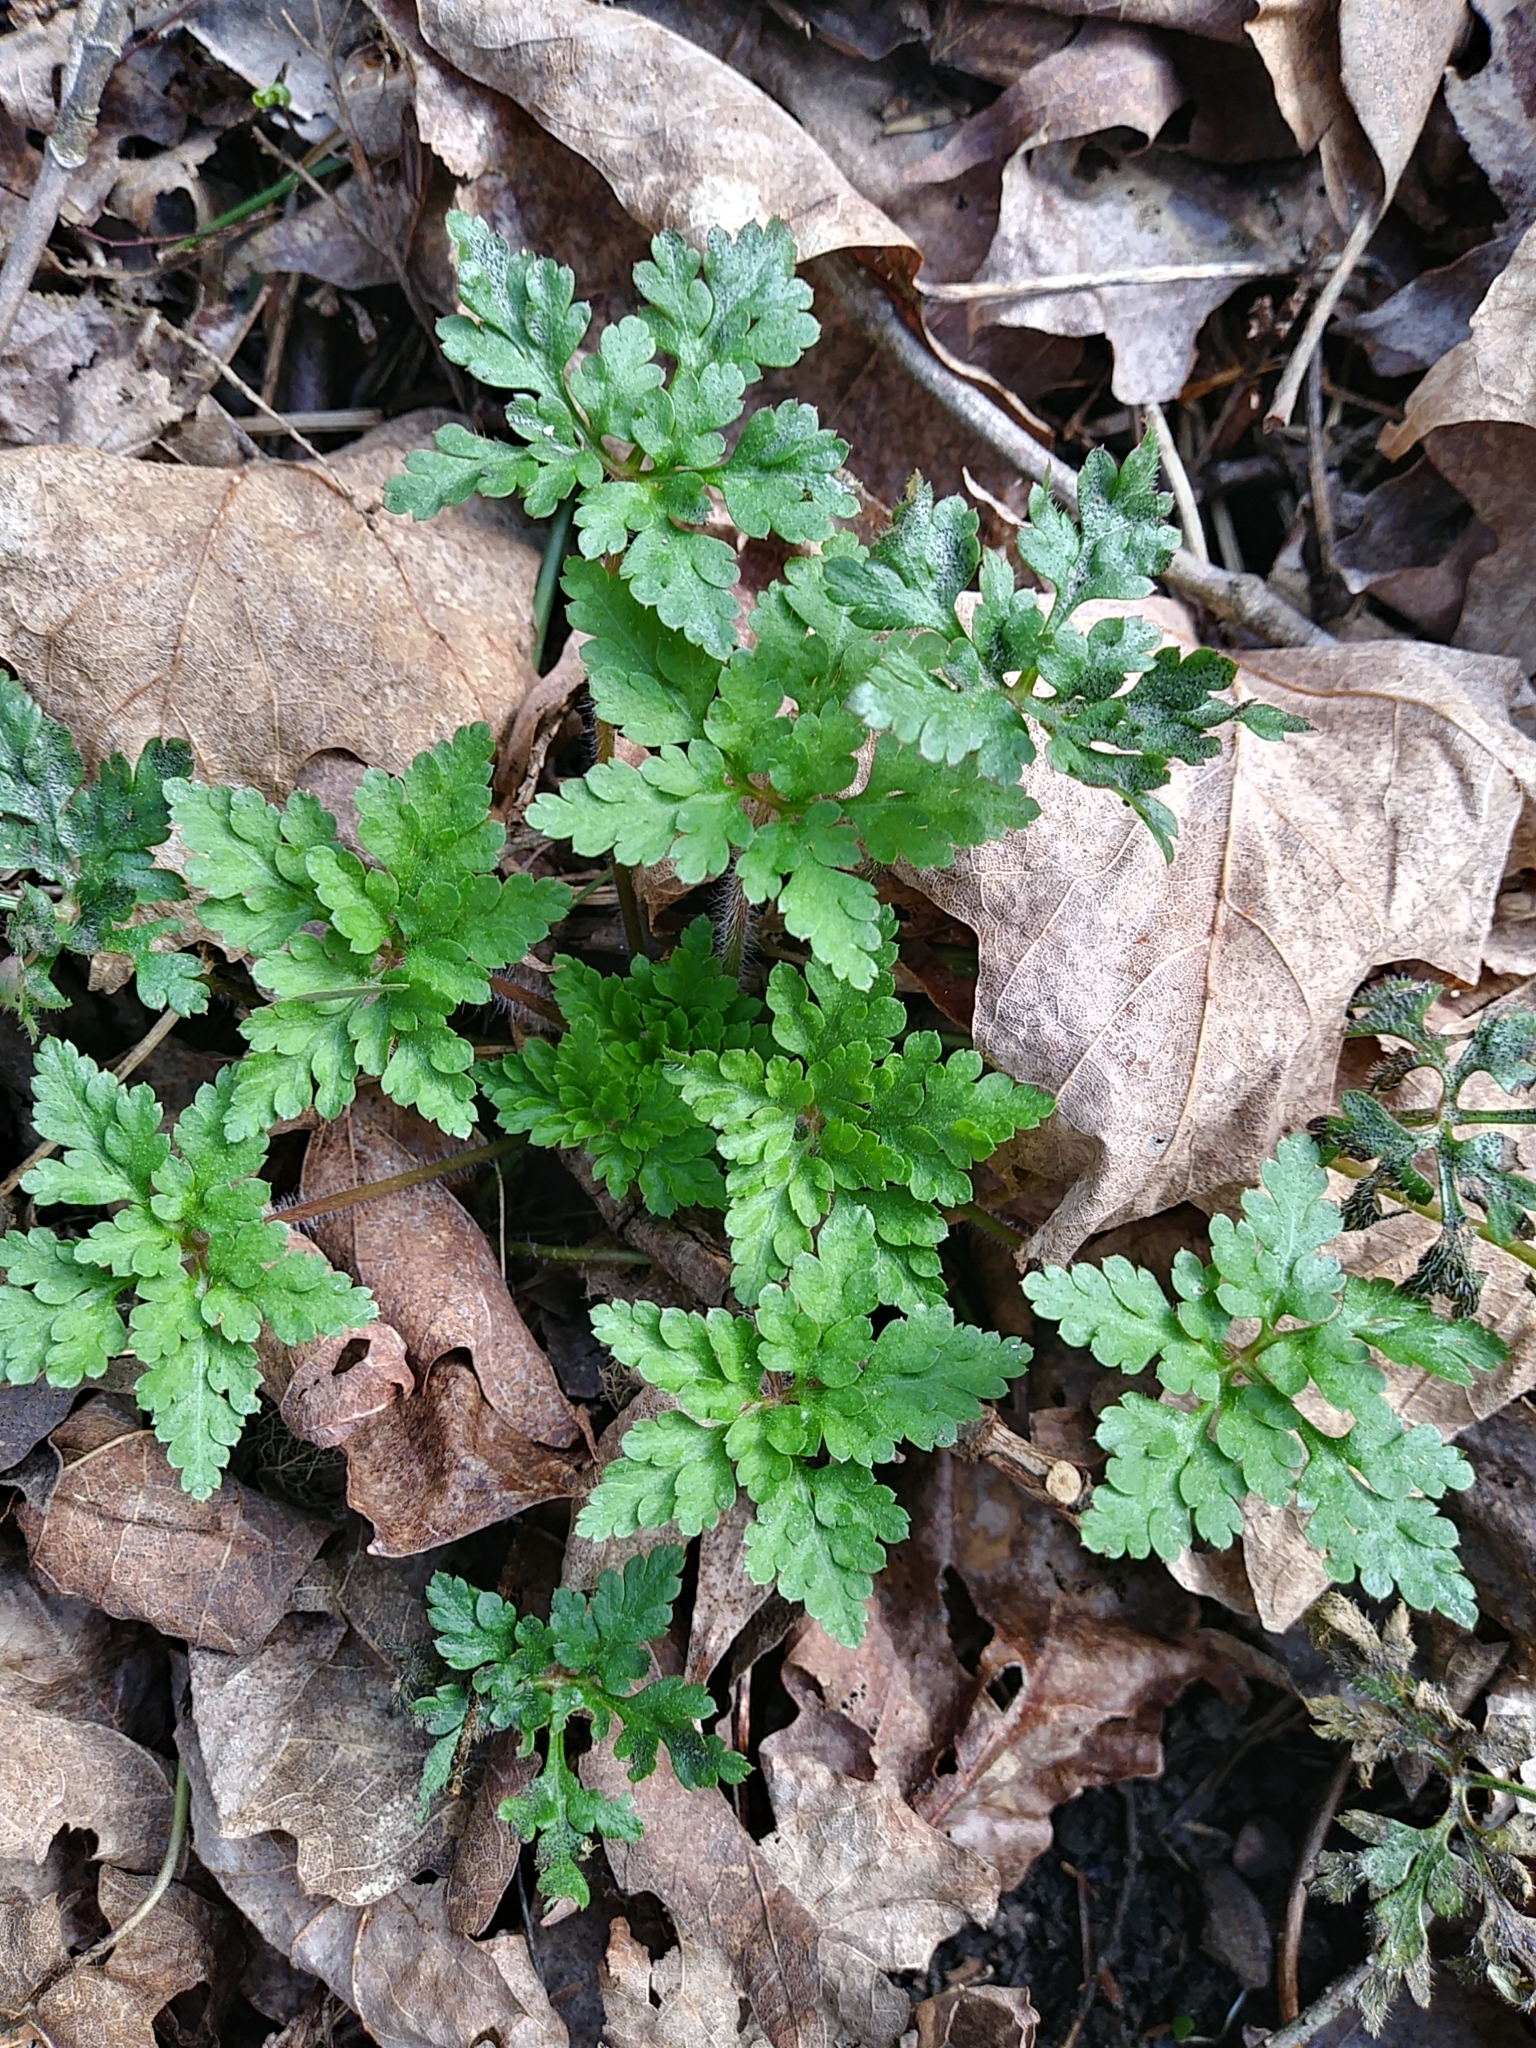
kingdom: Plantae
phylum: Tracheophyta
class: Magnoliopsida
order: Geraniales
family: Geraniaceae
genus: Geranium
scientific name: Geranium robertianum
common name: Herb-robert
